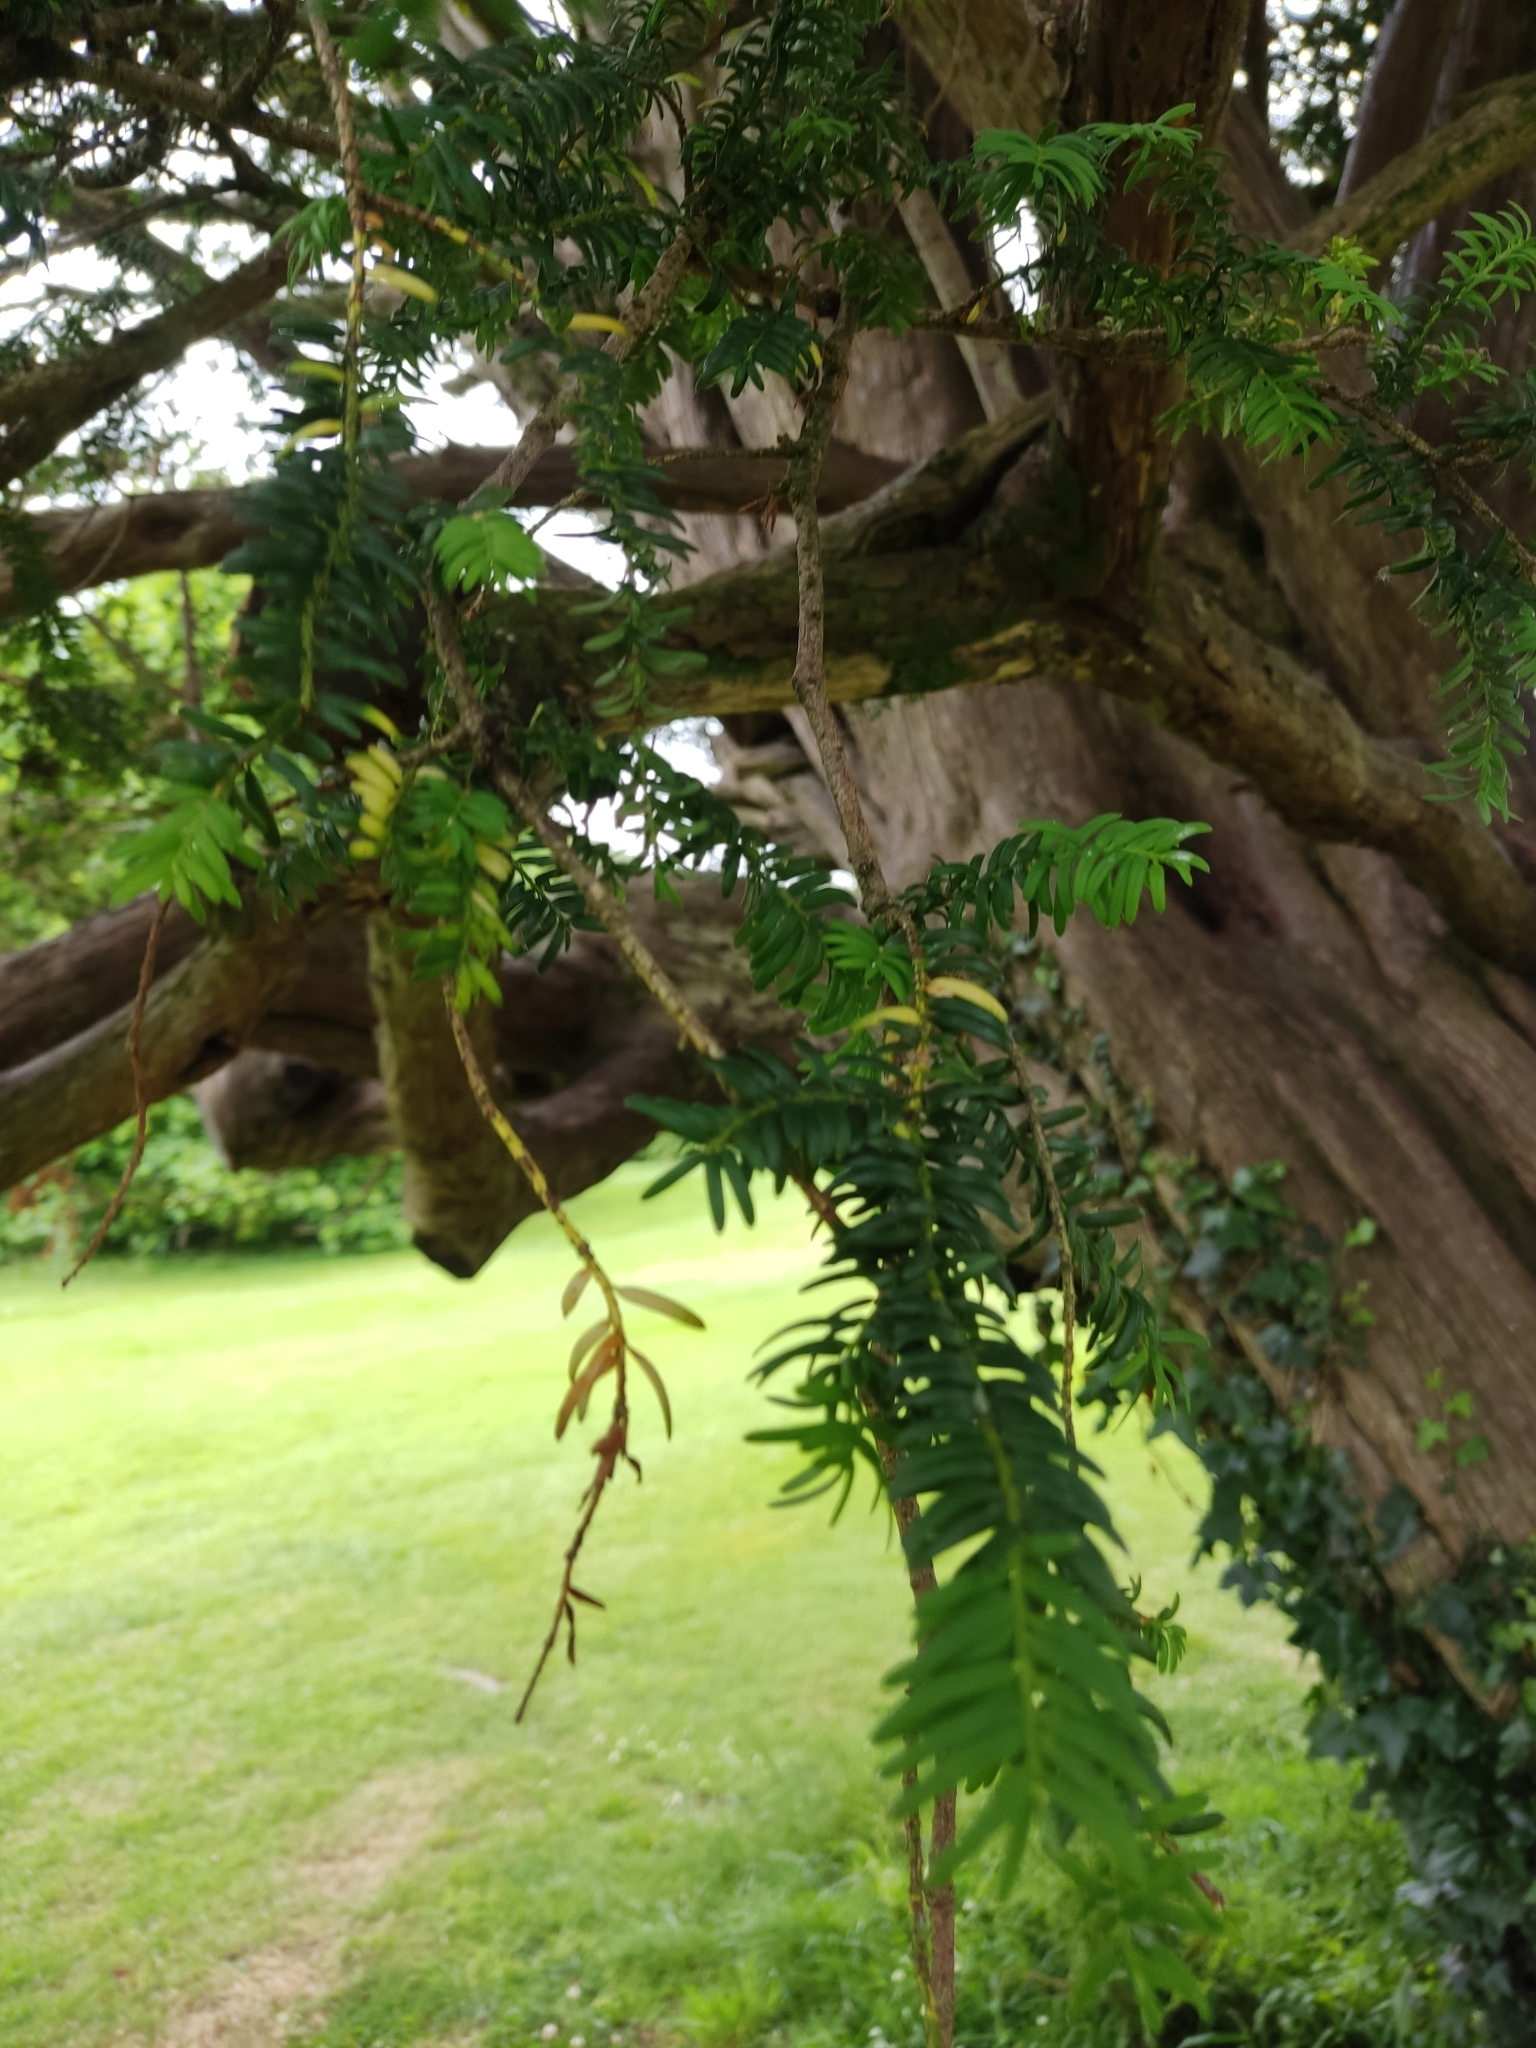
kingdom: Plantae
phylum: Tracheophyta
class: Pinopsida
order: Pinales
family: Taxaceae
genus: Taxus
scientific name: Taxus baccata
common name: Yew
